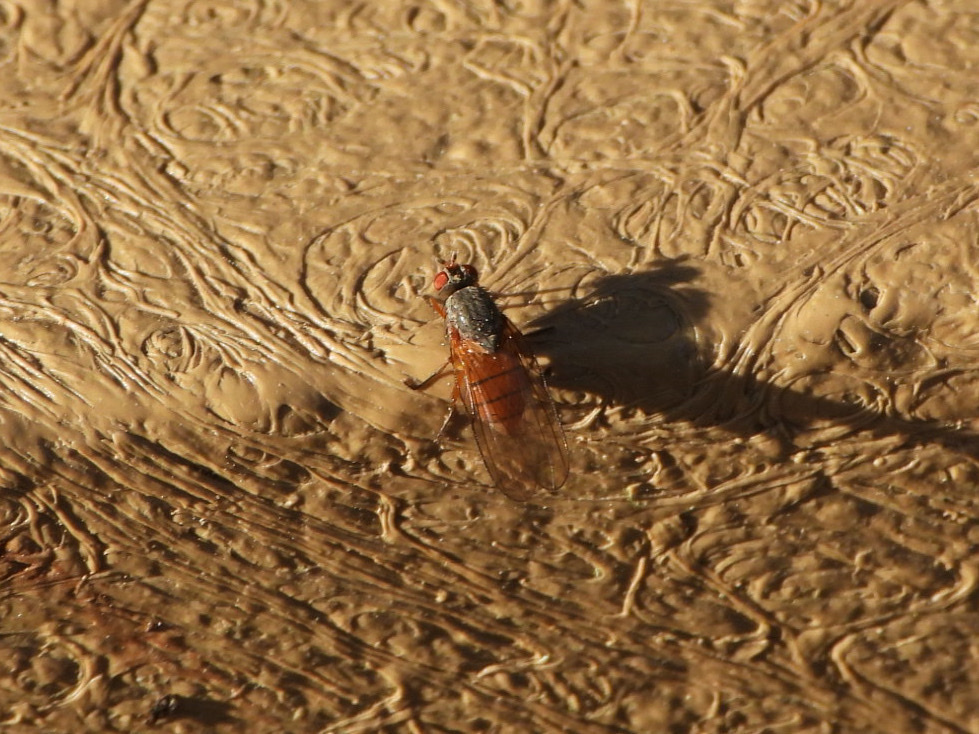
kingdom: Animalia
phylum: Arthropoda
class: Insecta
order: Diptera
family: Anthomyiidae
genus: Pegomya
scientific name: Pegomya winthemi
